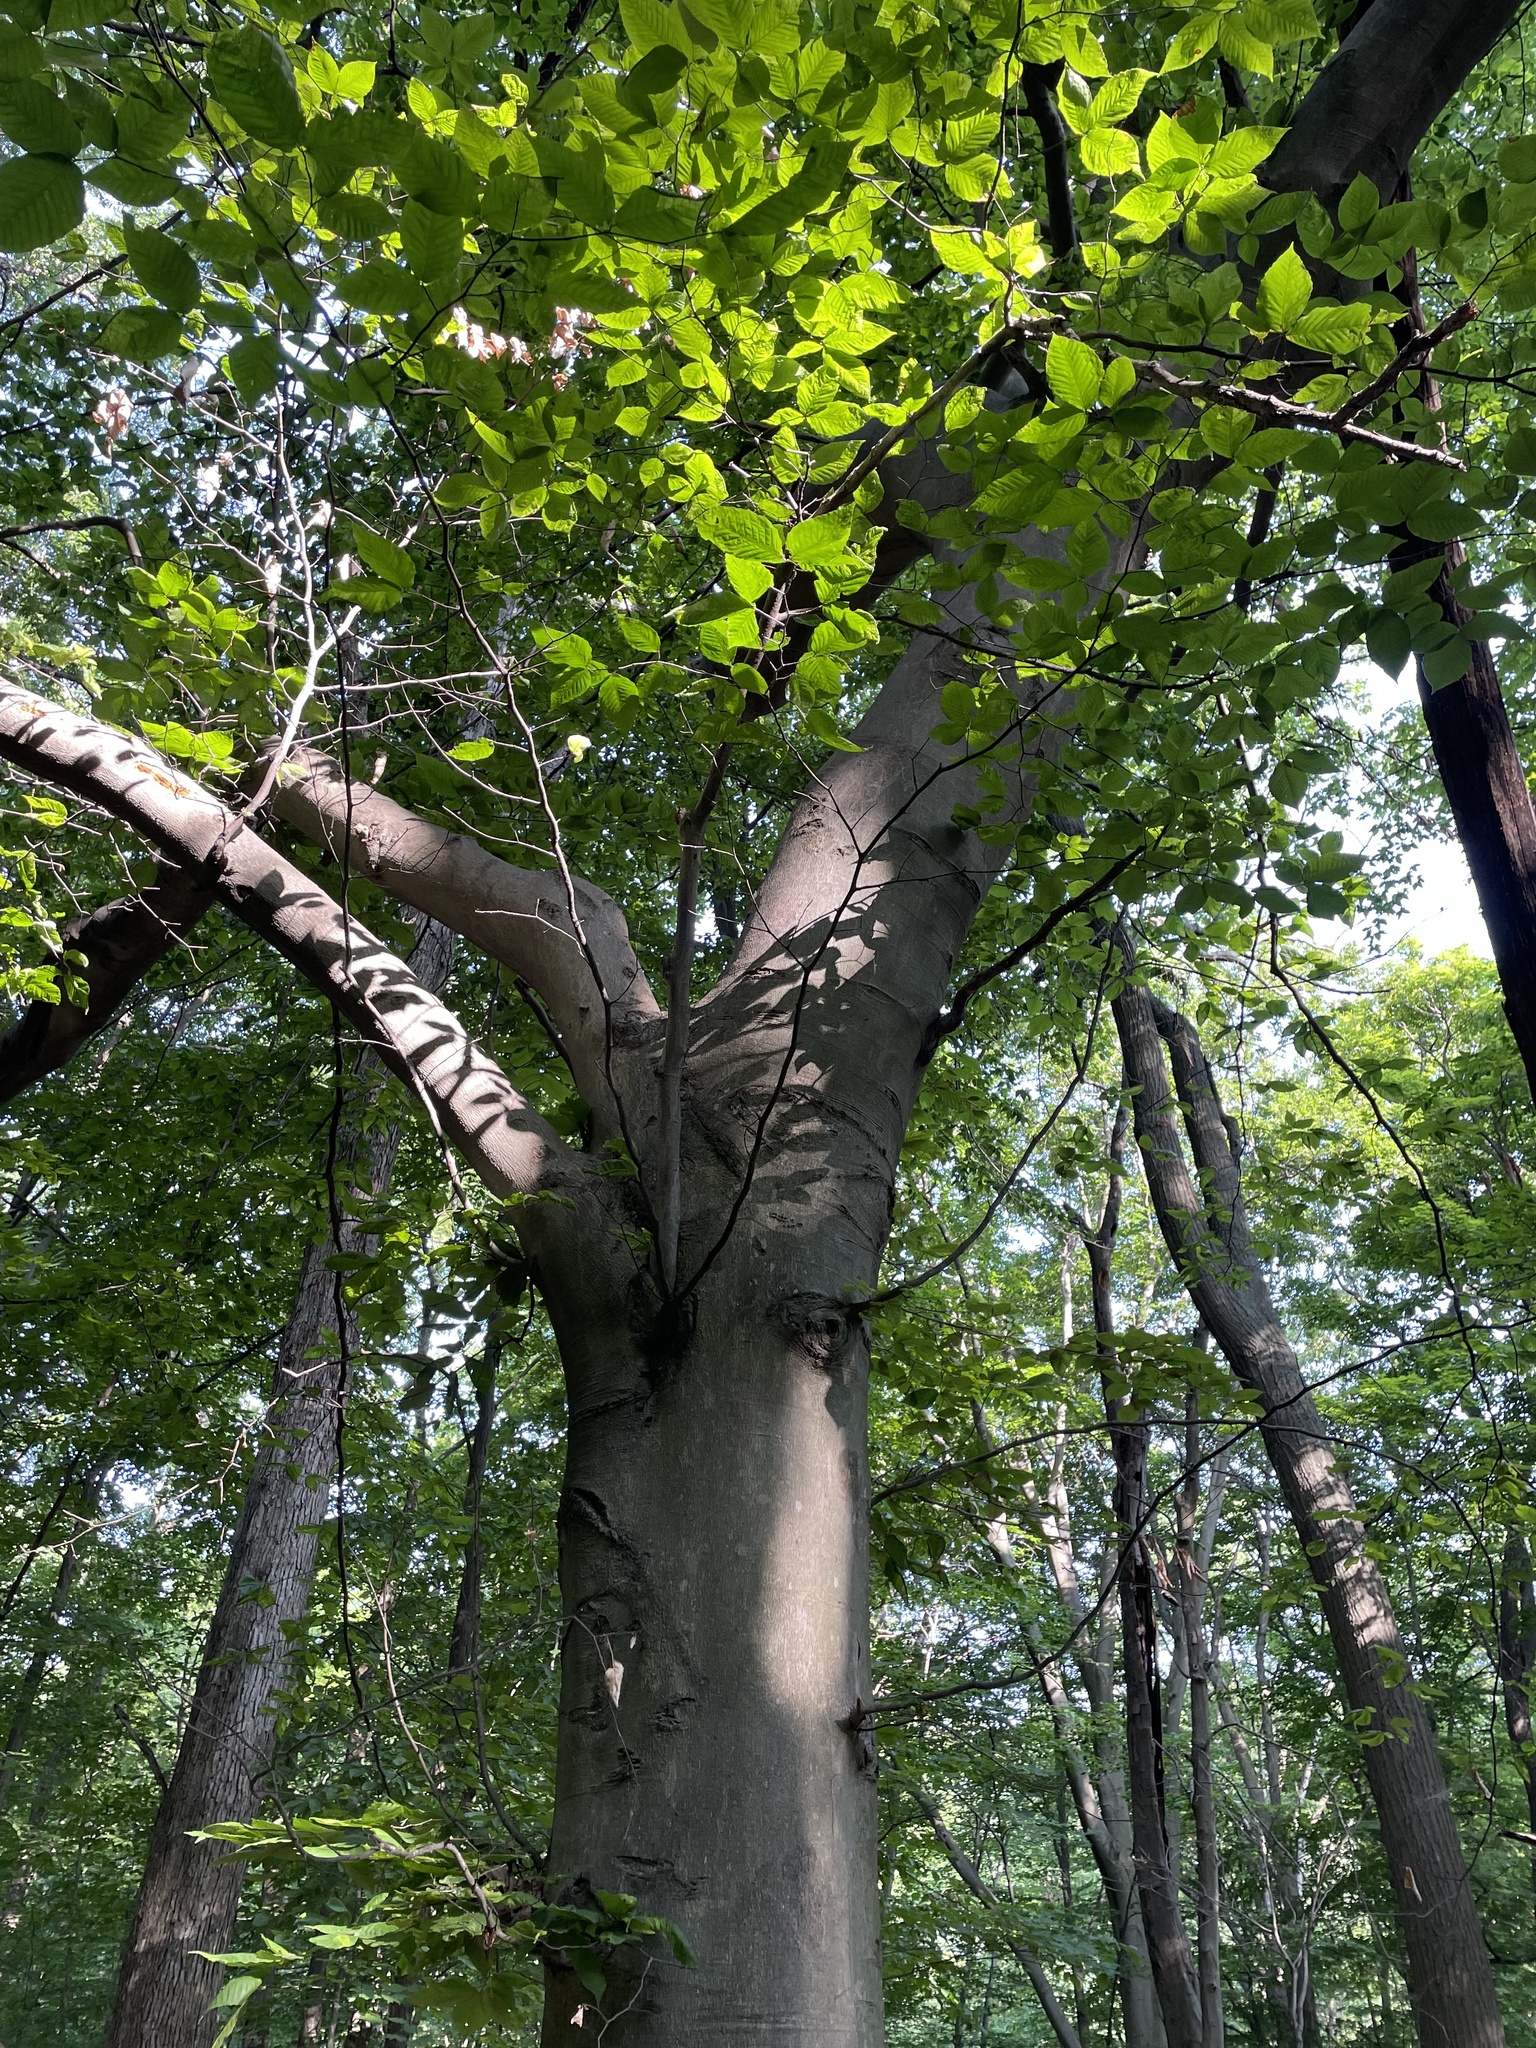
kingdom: Plantae
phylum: Tracheophyta
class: Magnoliopsida
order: Fagales
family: Fagaceae
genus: Fagus
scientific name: Fagus grandifolia
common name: American beech
